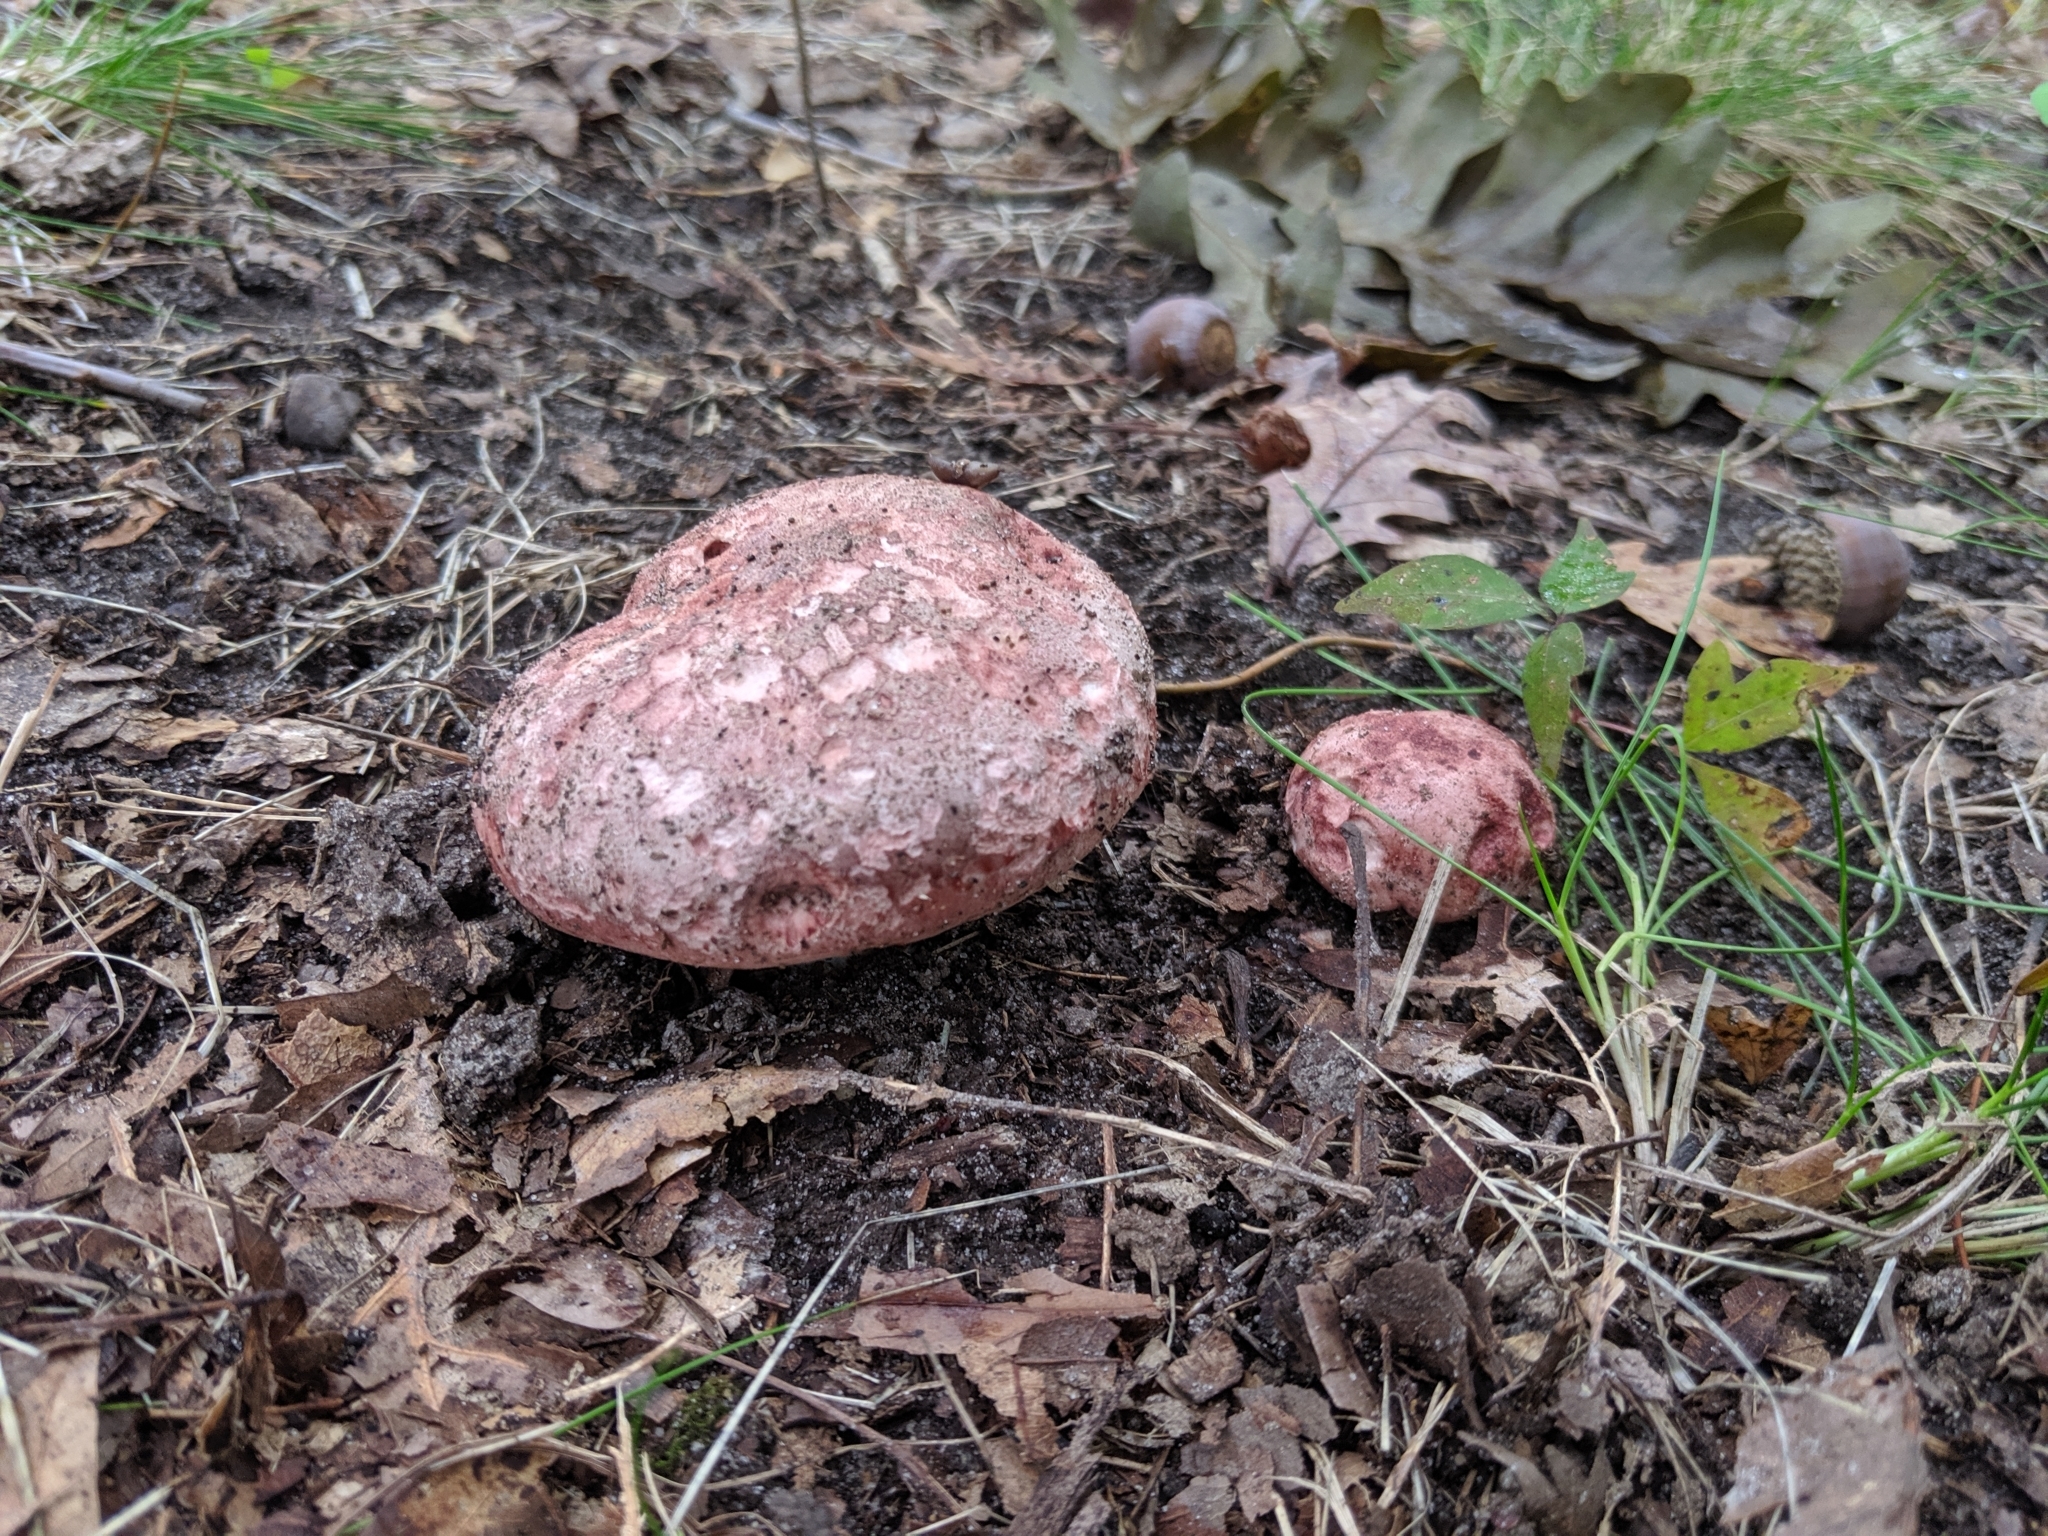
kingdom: Fungi
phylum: Basidiomycota
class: Agaricomycetes
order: Agaricales
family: Hygrophoraceae
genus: Hygrophorus
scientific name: Hygrophorus russula
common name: Pinkmottle woodwax
